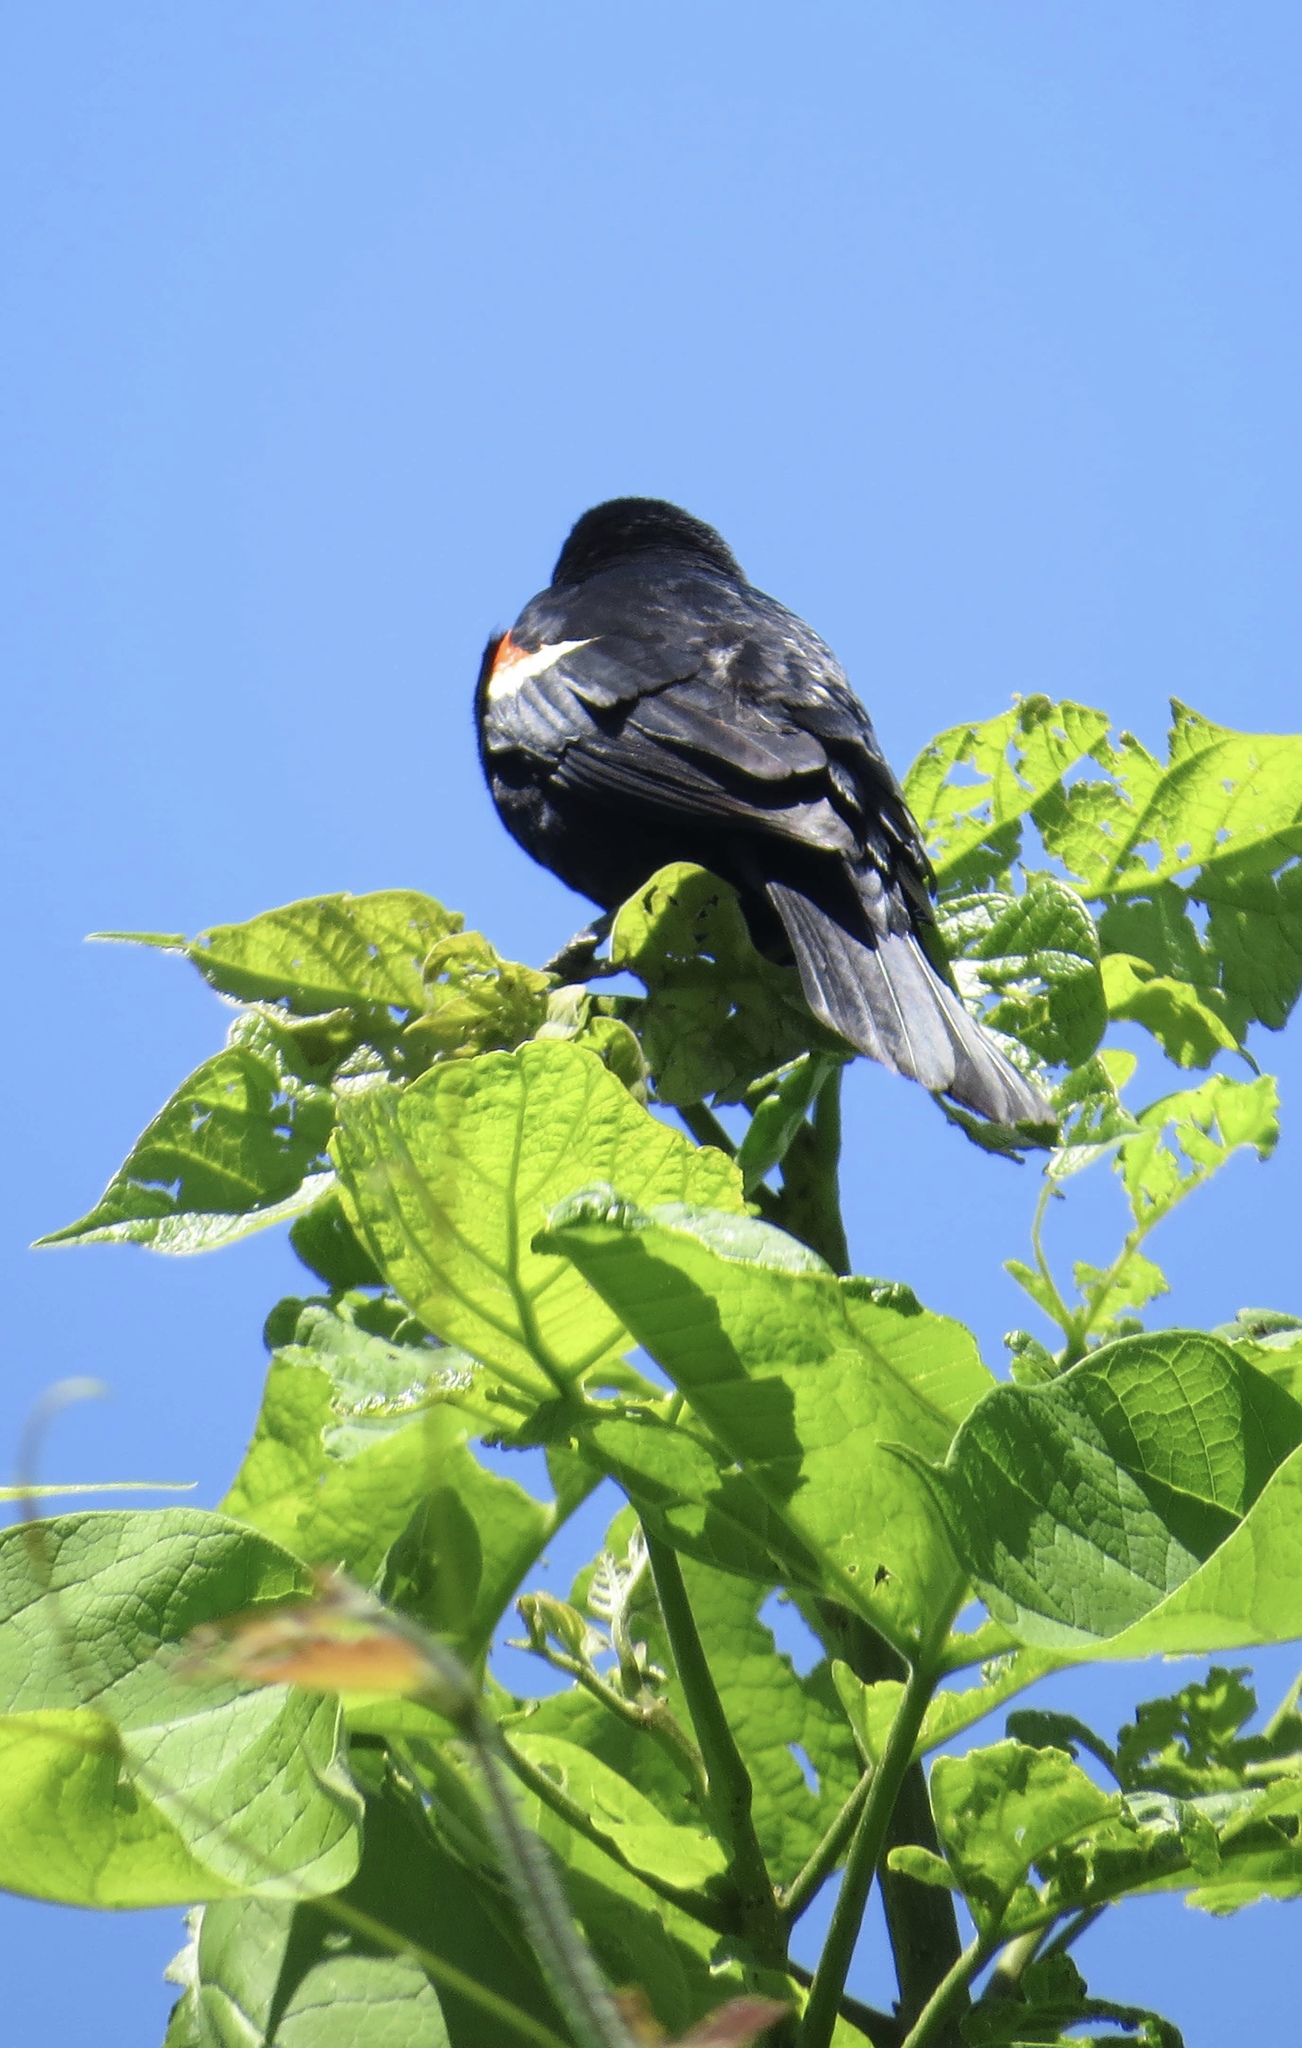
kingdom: Animalia
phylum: Chordata
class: Aves
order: Passeriformes
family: Icteridae
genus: Agelaius
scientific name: Agelaius phoeniceus
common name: Red-winged blackbird
